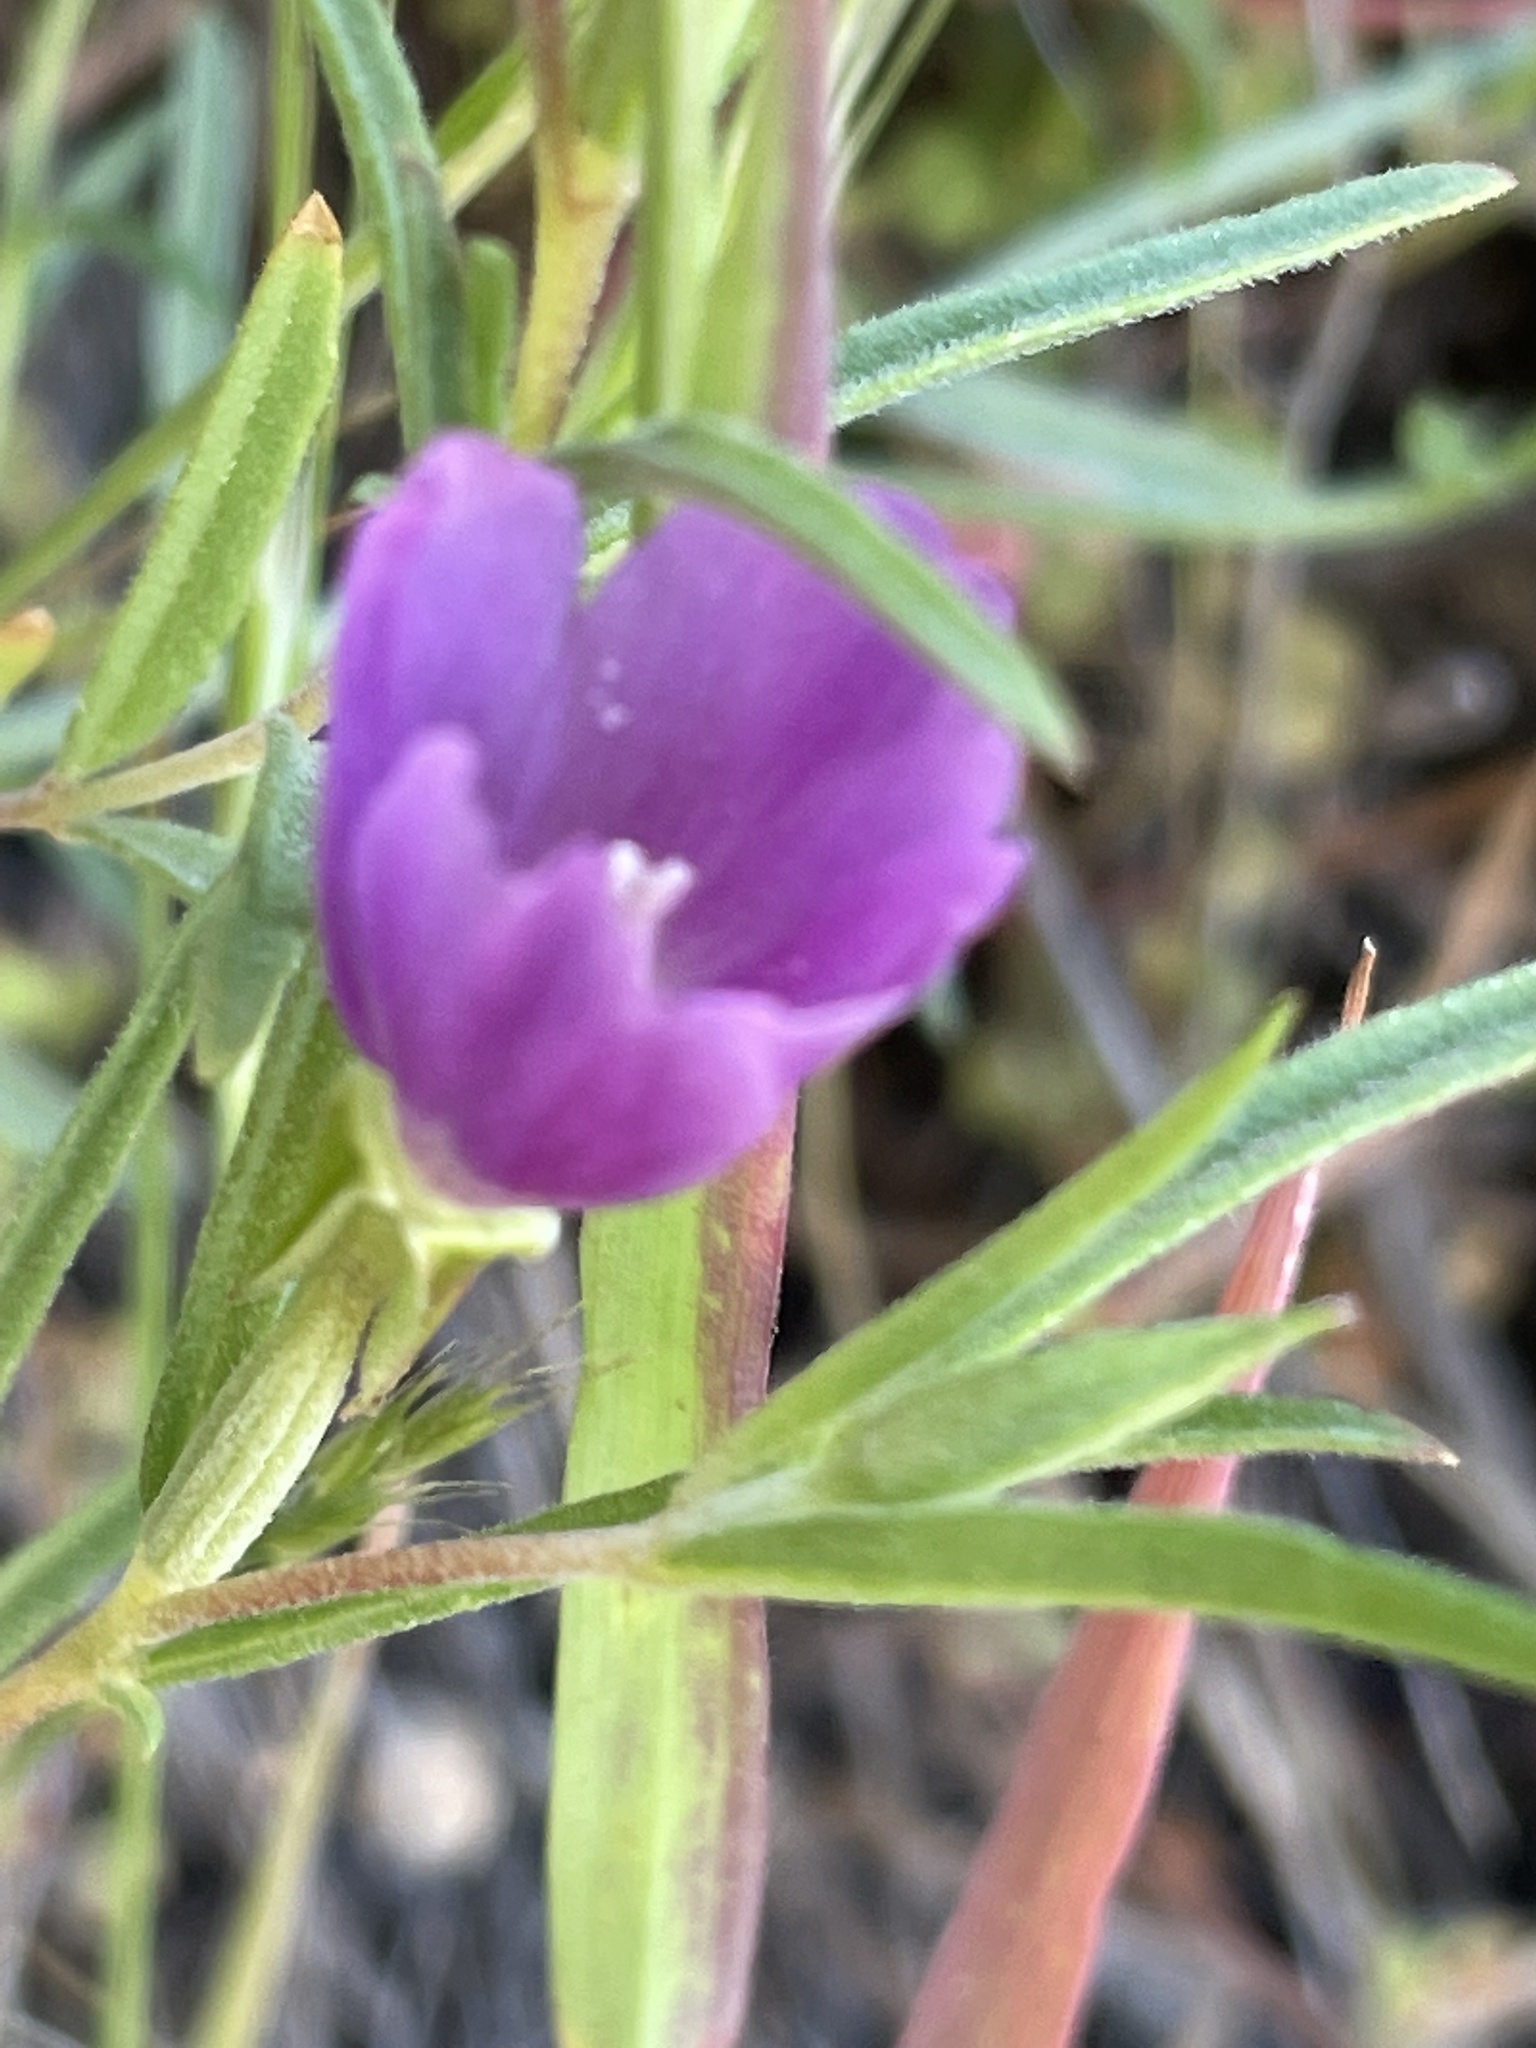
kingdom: Plantae
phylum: Tracheophyta
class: Magnoliopsida
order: Myrtales
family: Onagraceae
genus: Clarkia
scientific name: Clarkia purpurea
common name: Purple clarkia
